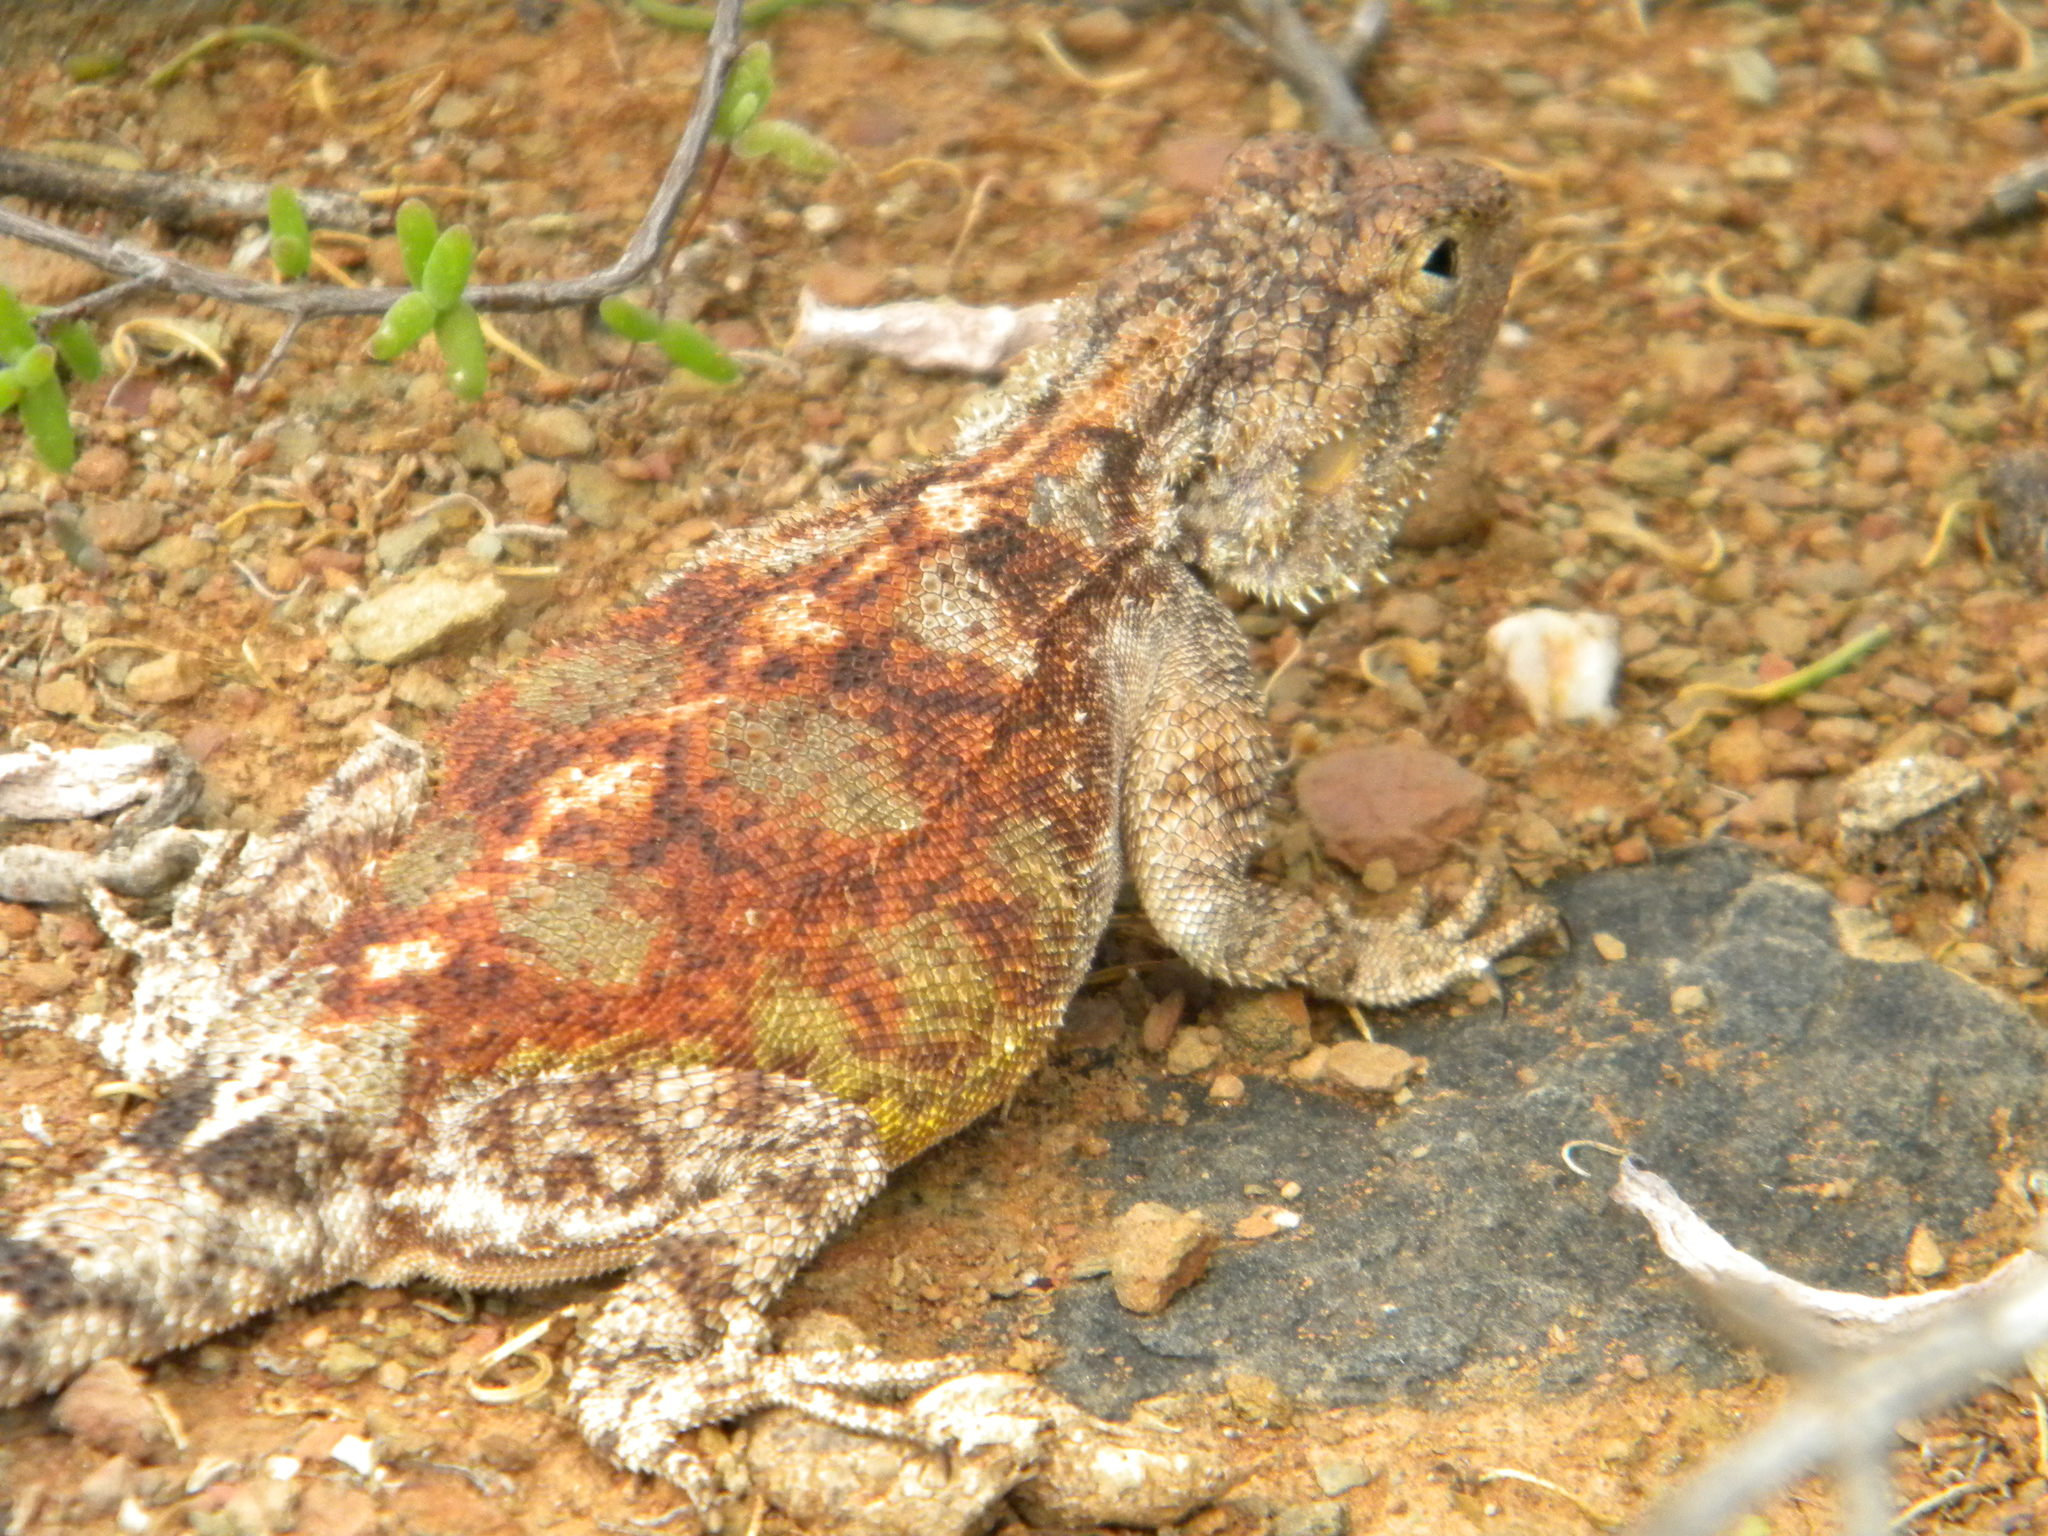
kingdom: Animalia
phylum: Chordata
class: Squamata
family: Agamidae
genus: Agama
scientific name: Agama atra
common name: Southern african rock agama
